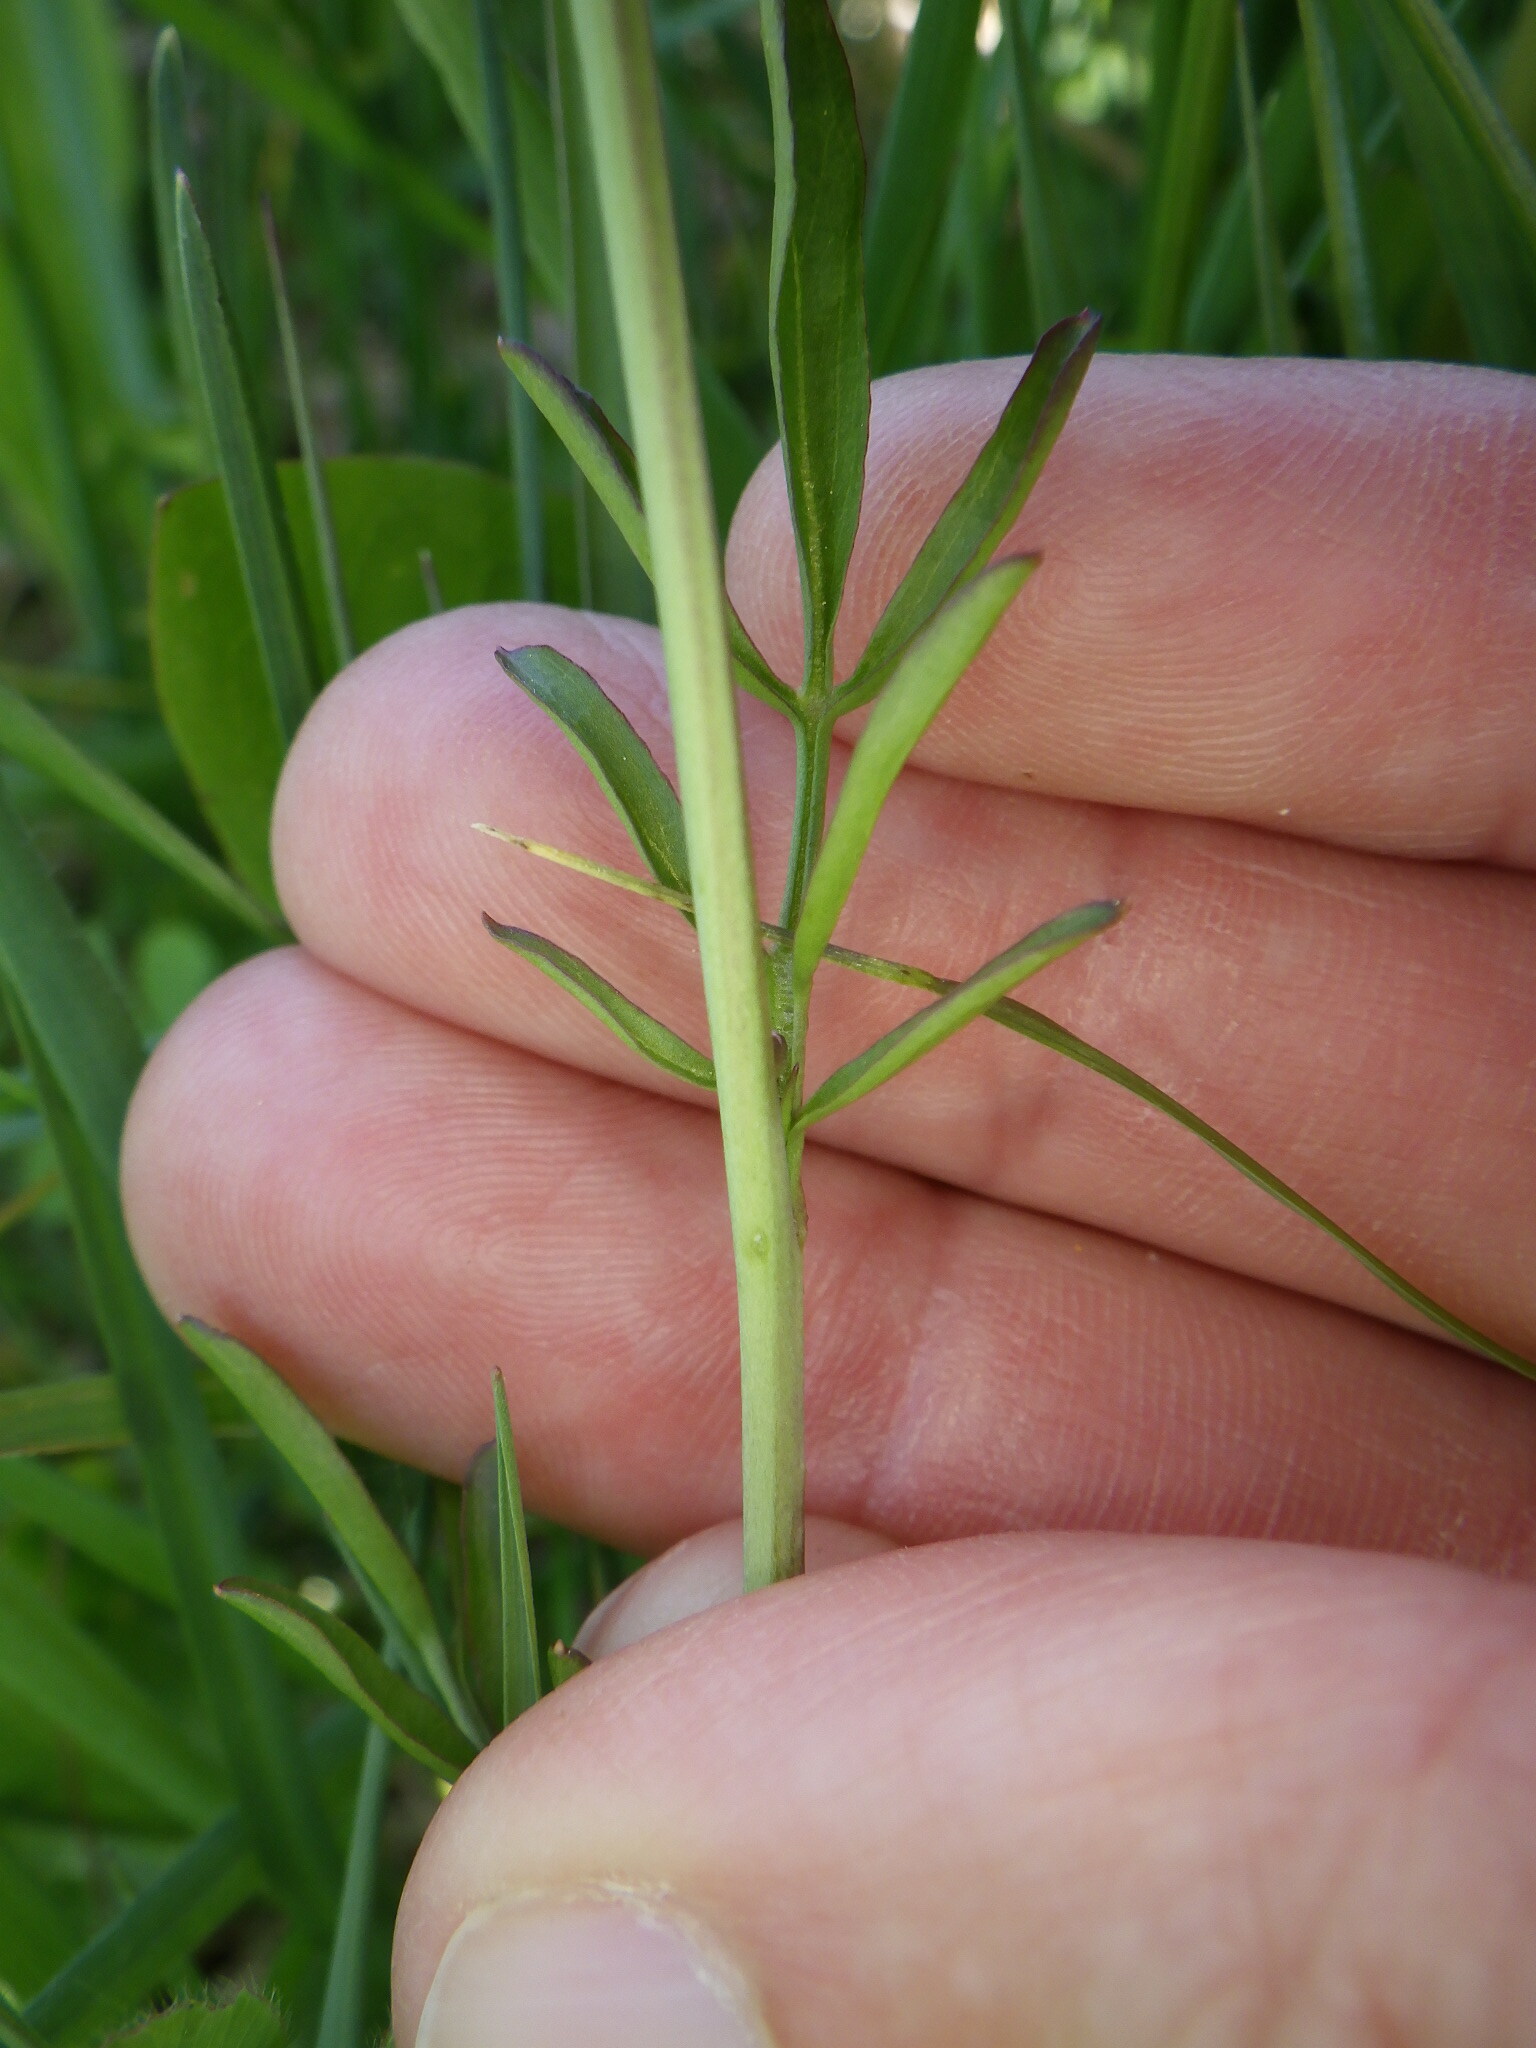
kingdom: Plantae
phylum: Tracheophyta
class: Magnoliopsida
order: Brassicales
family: Brassicaceae
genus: Cardamine
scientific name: Cardamine pratensis
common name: Cuckoo flower
